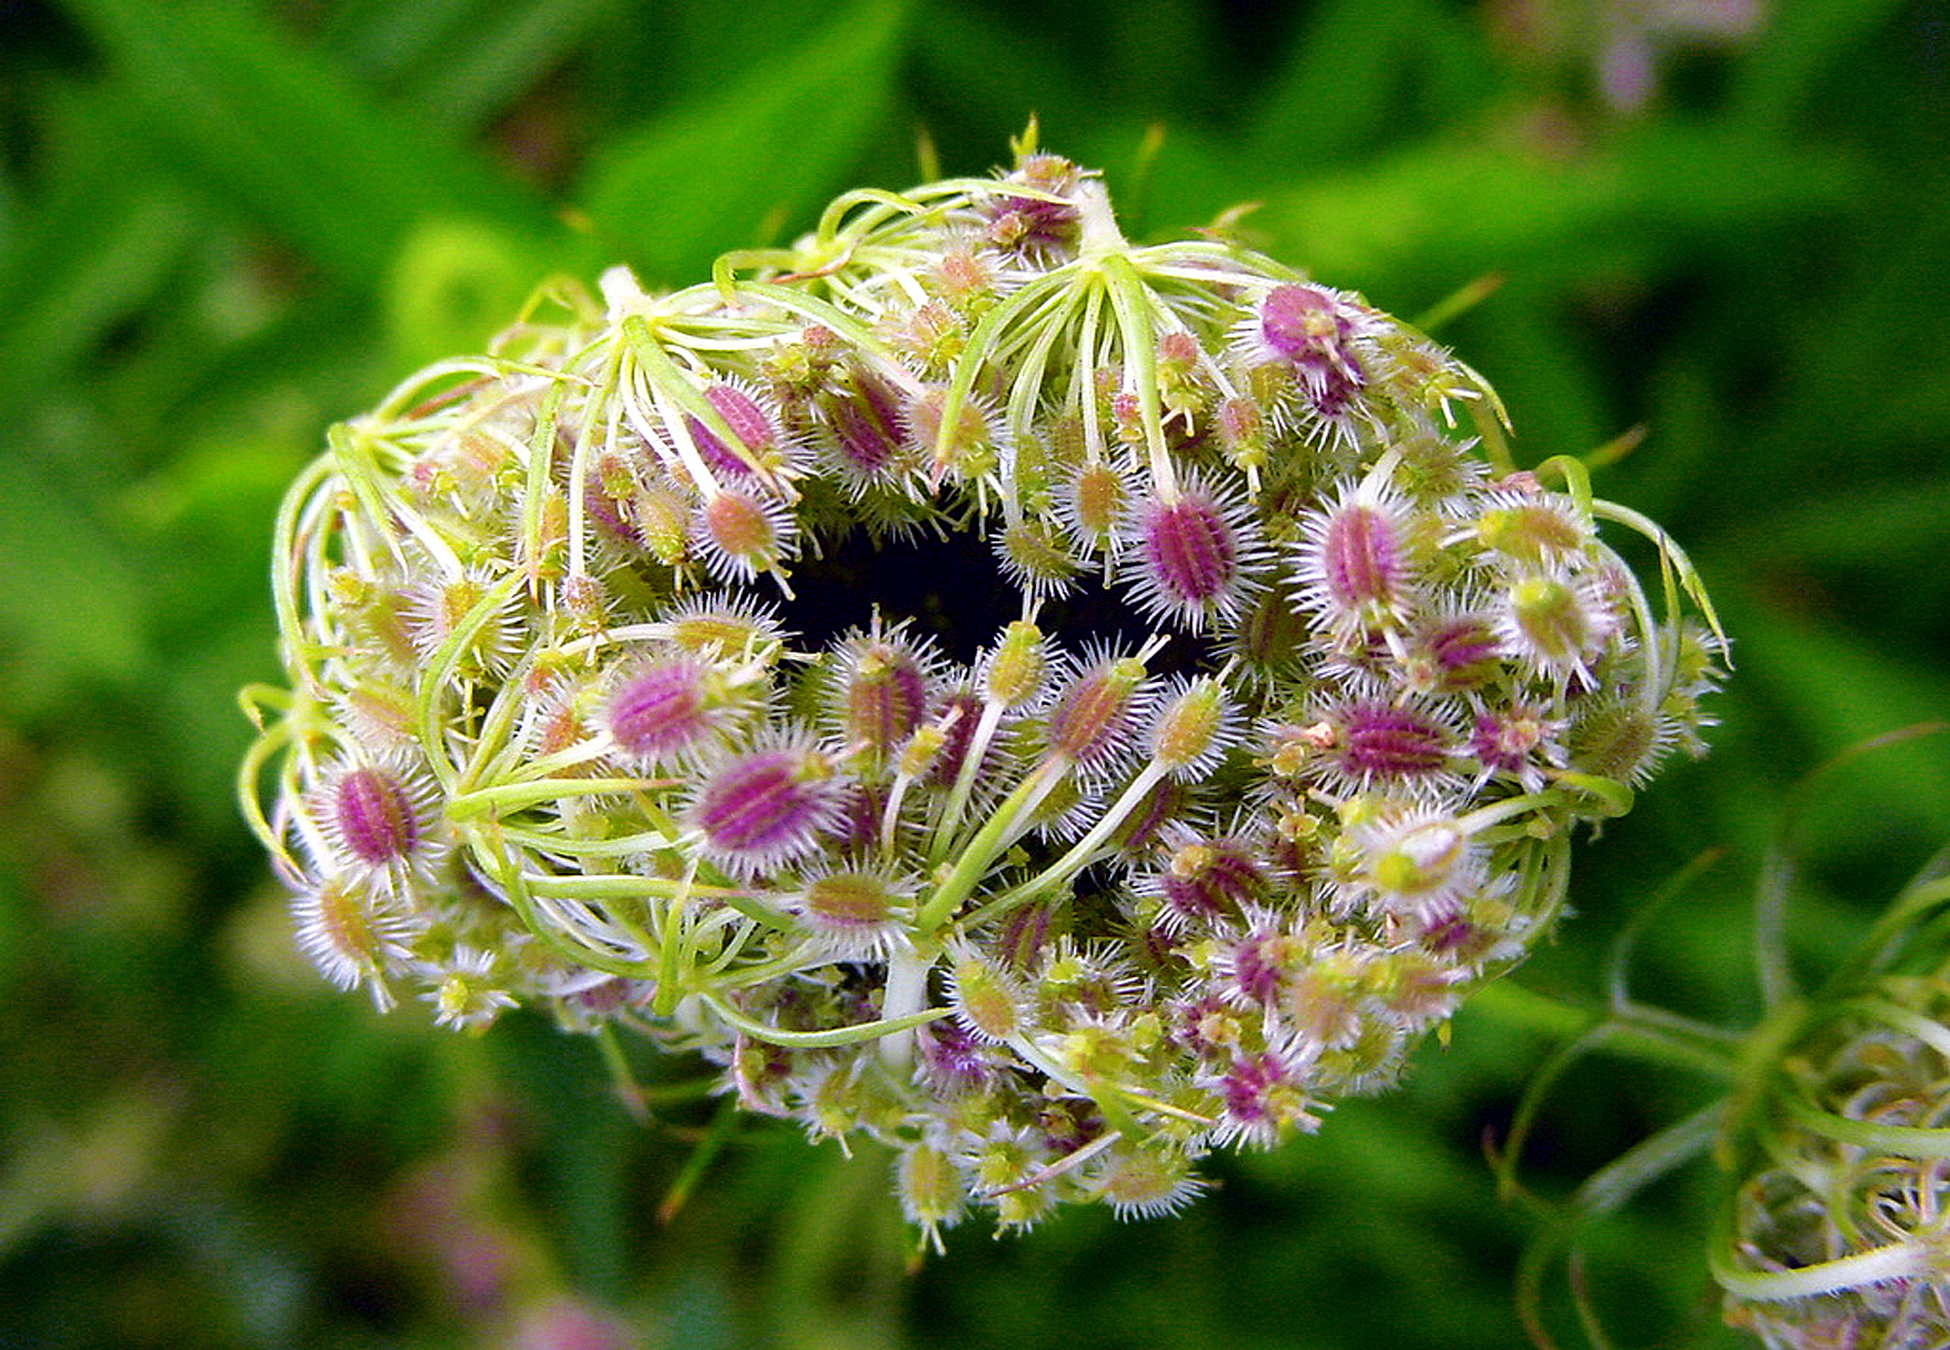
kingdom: Plantae
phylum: Tracheophyta
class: Magnoliopsida
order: Apiales
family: Apiaceae
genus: Daucus
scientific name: Daucus carota
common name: Wild carrot
